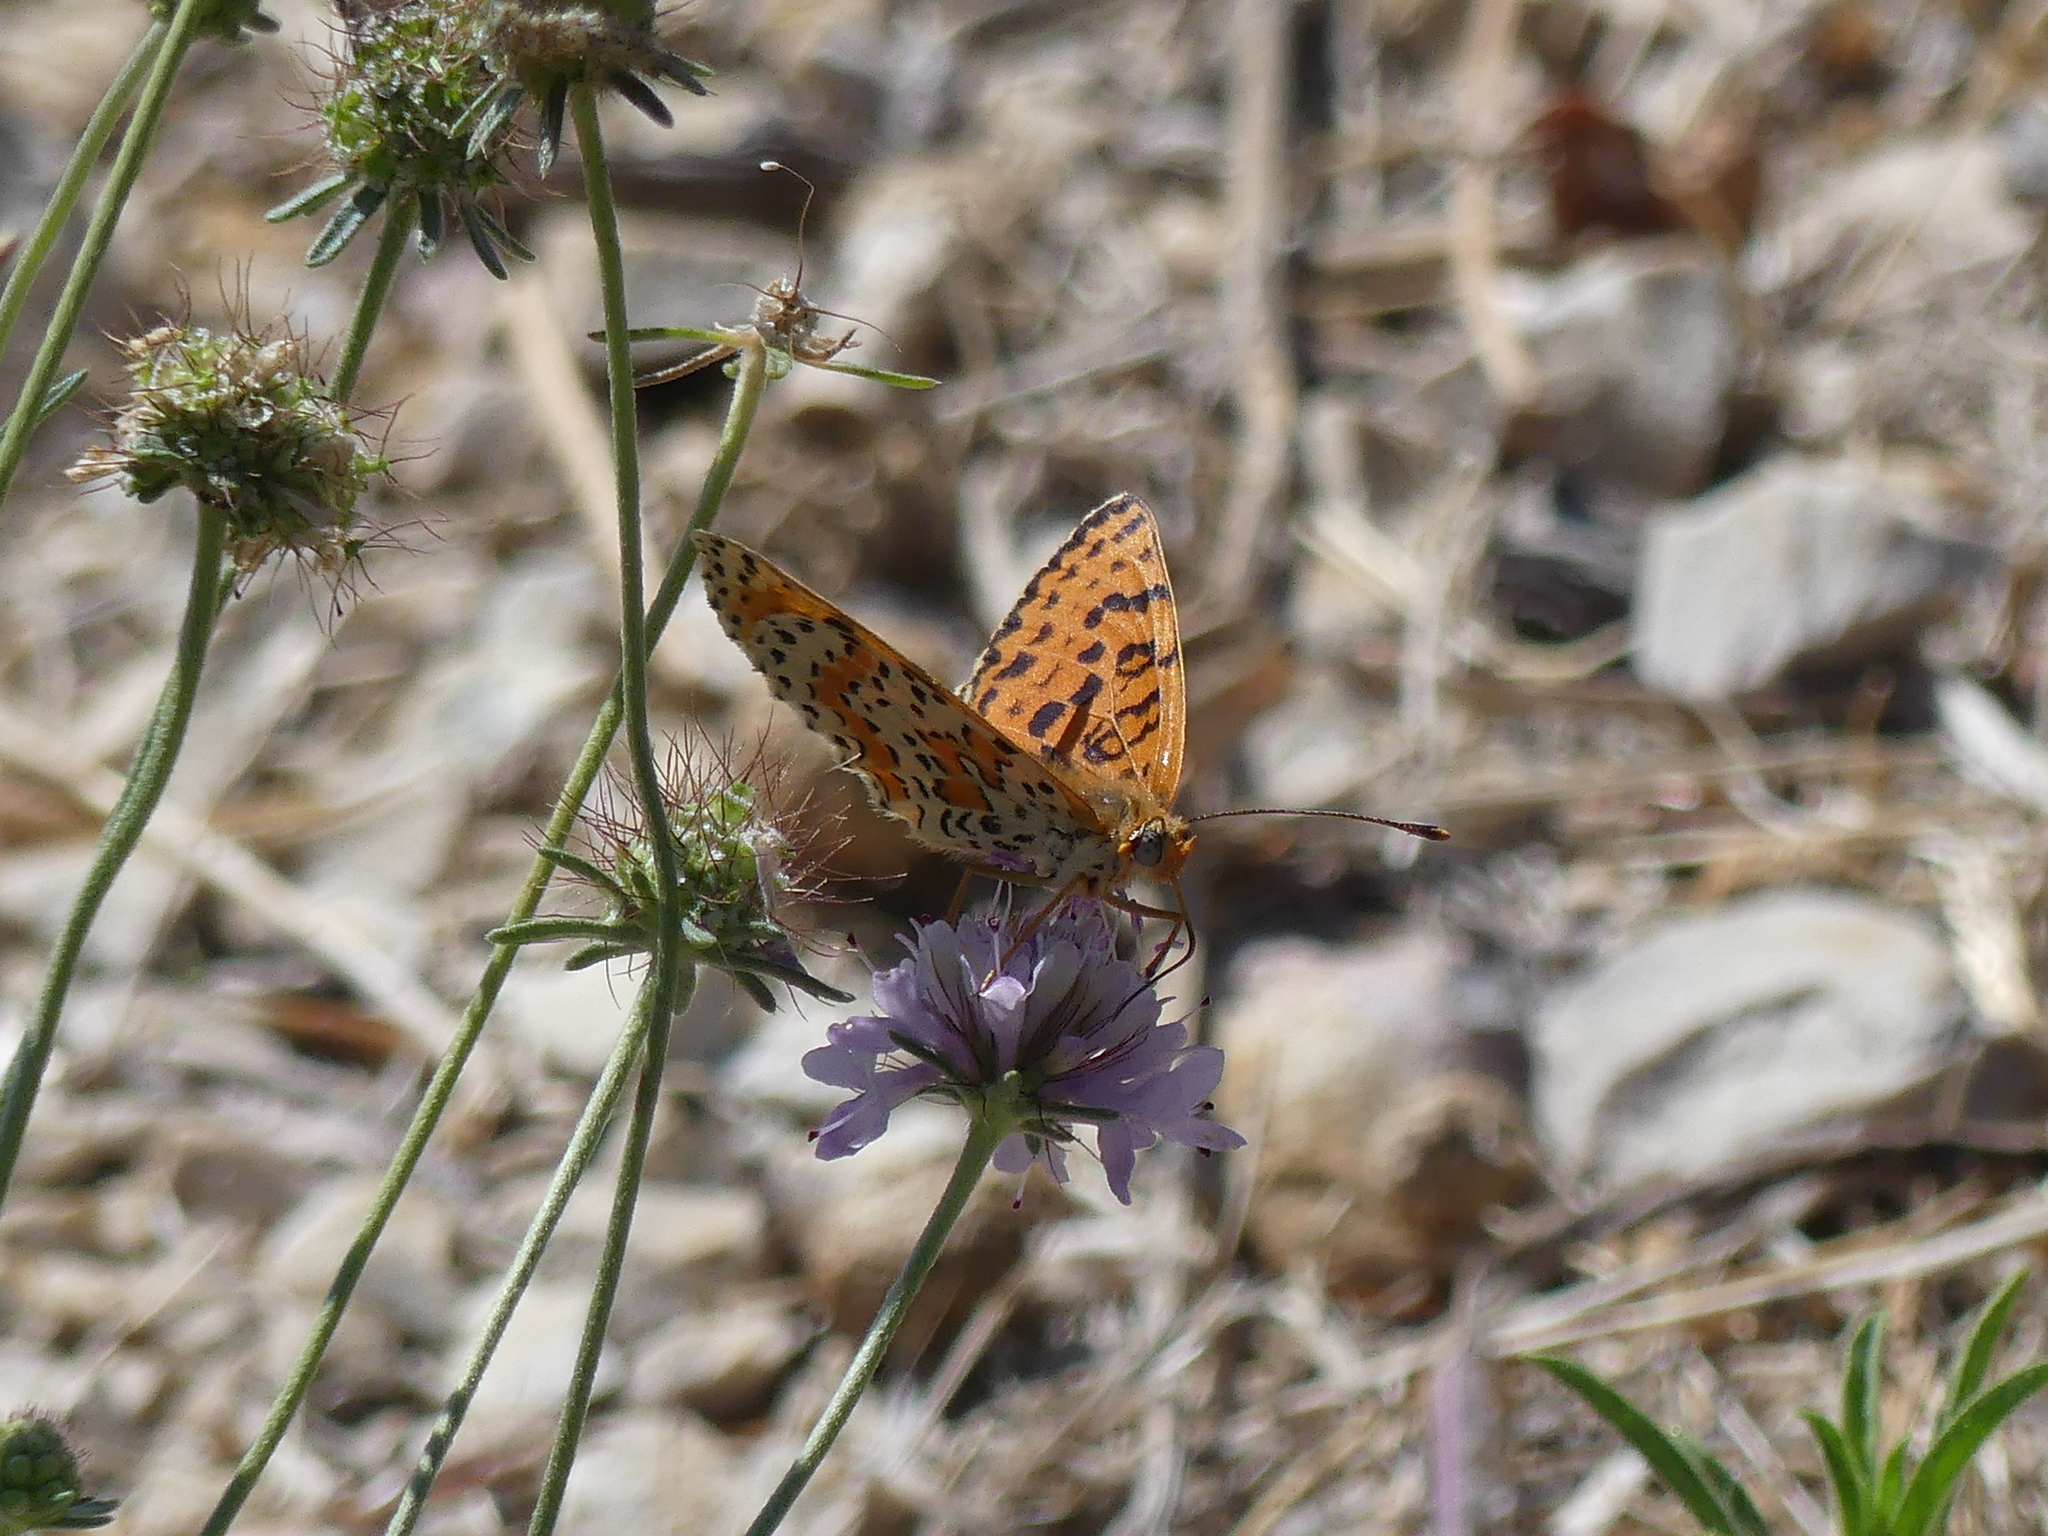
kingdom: Animalia
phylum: Arthropoda
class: Insecta
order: Lepidoptera
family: Nymphalidae
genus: Melitaea
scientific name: Melitaea didyma
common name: Spotted fritillary
